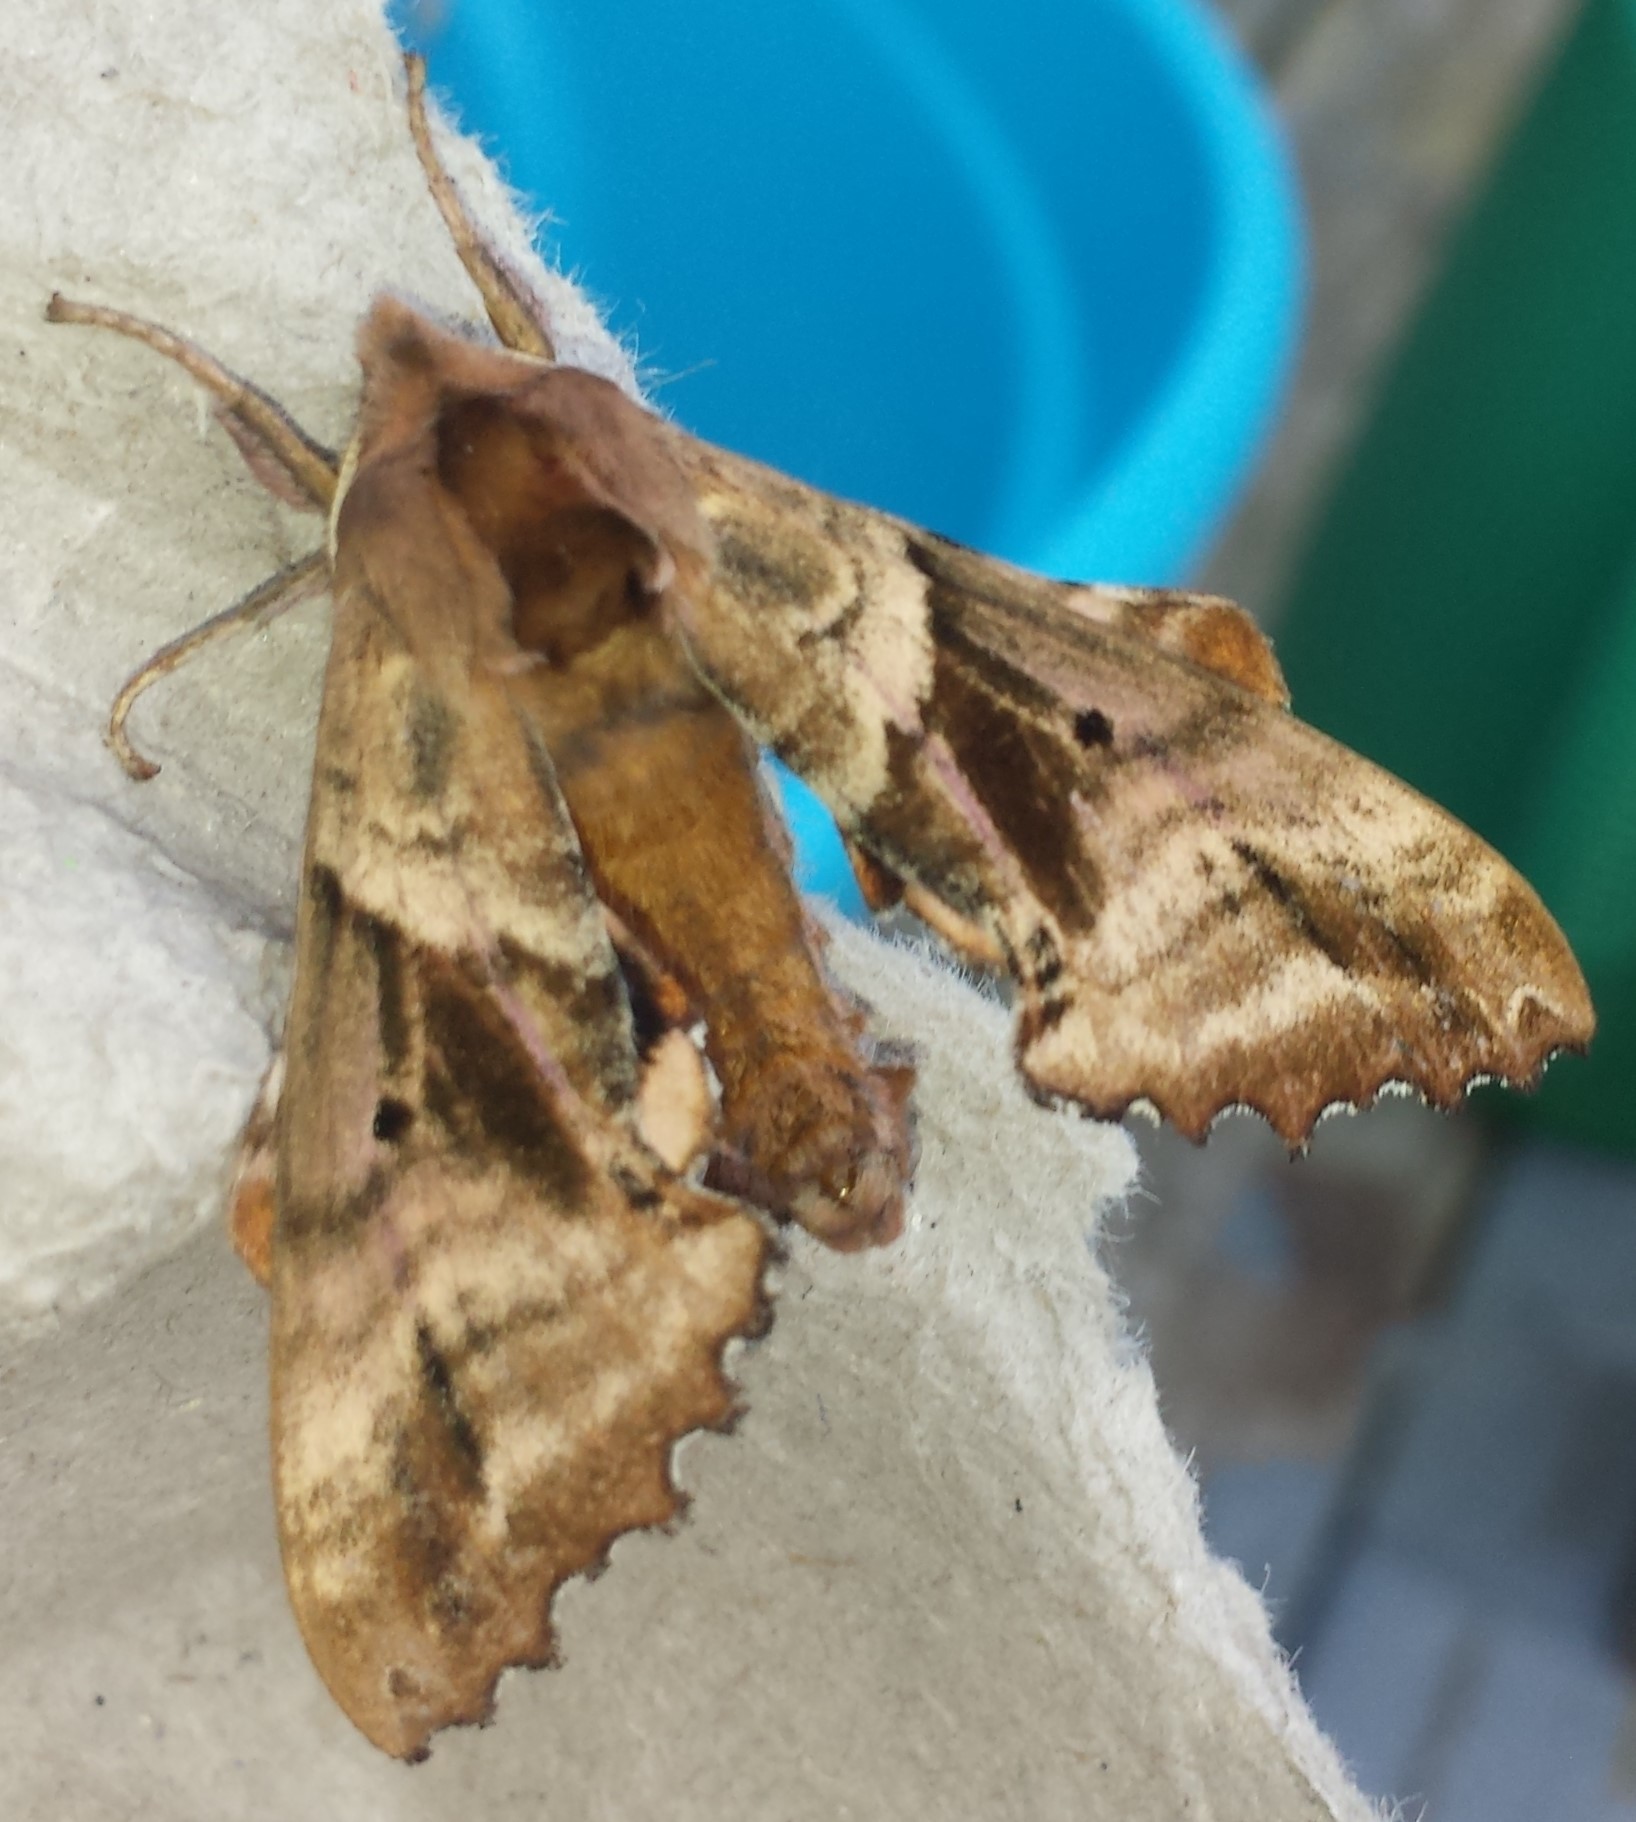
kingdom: Animalia
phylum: Arthropoda
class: Insecta
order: Lepidoptera
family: Sphingidae
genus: Paonias
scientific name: Paonias excaecata
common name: Blind-eyed sphinx
